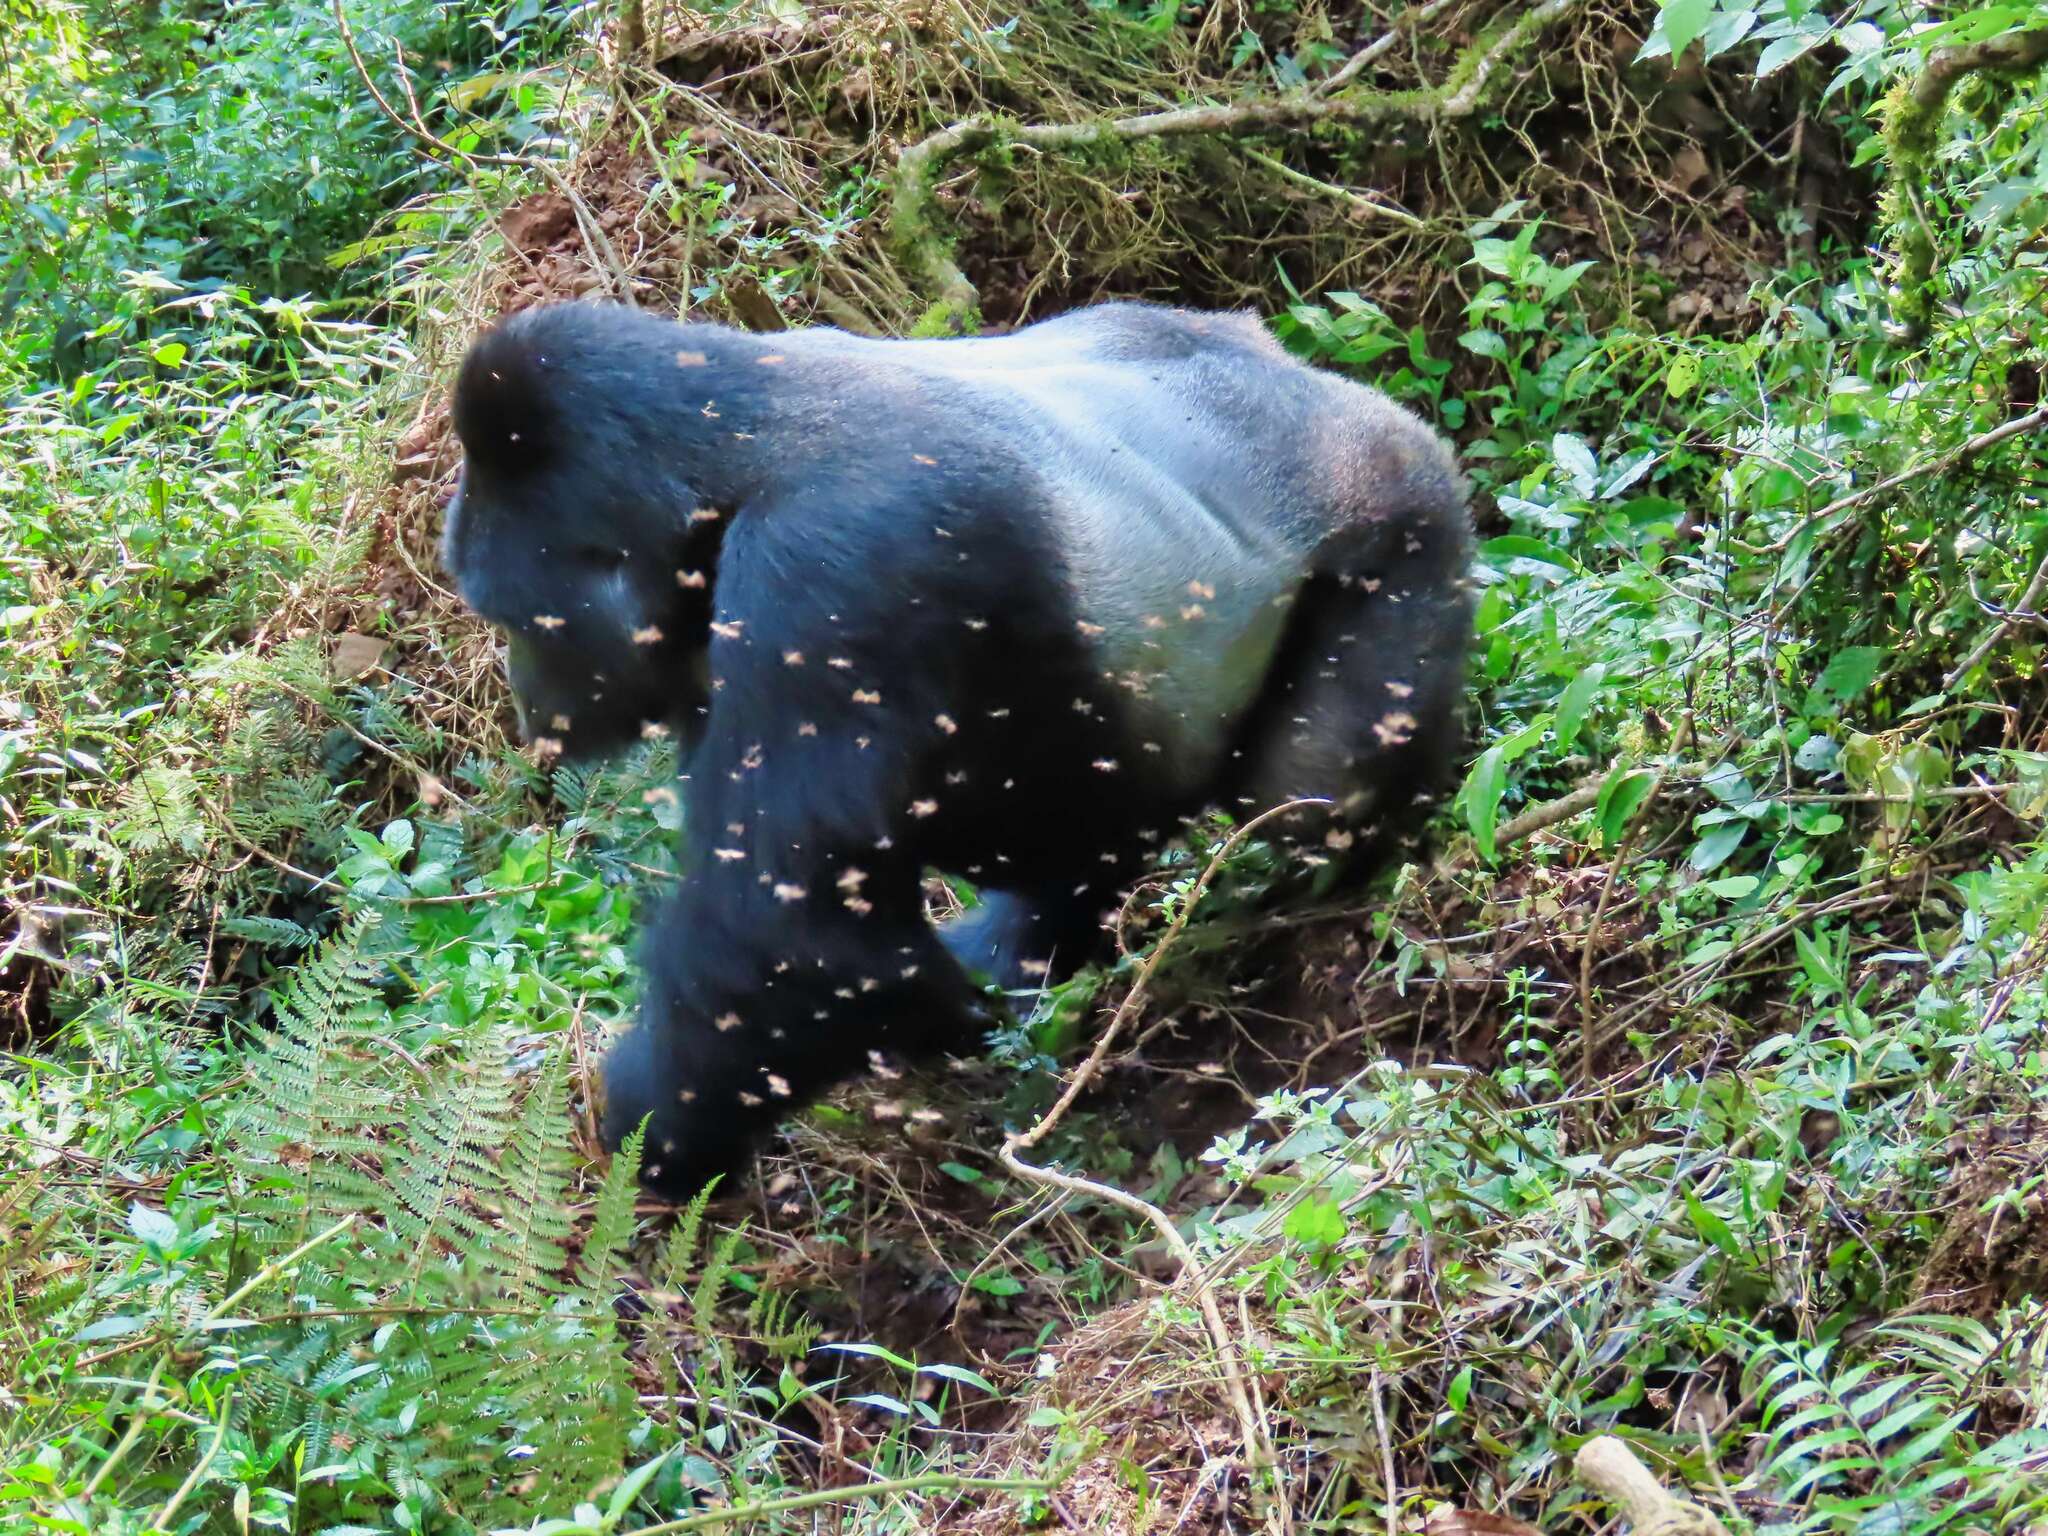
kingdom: Animalia
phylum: Chordata
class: Mammalia
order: Primates
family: Hominidae
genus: Gorilla
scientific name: Gorilla beringei
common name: Eastern gorilla
